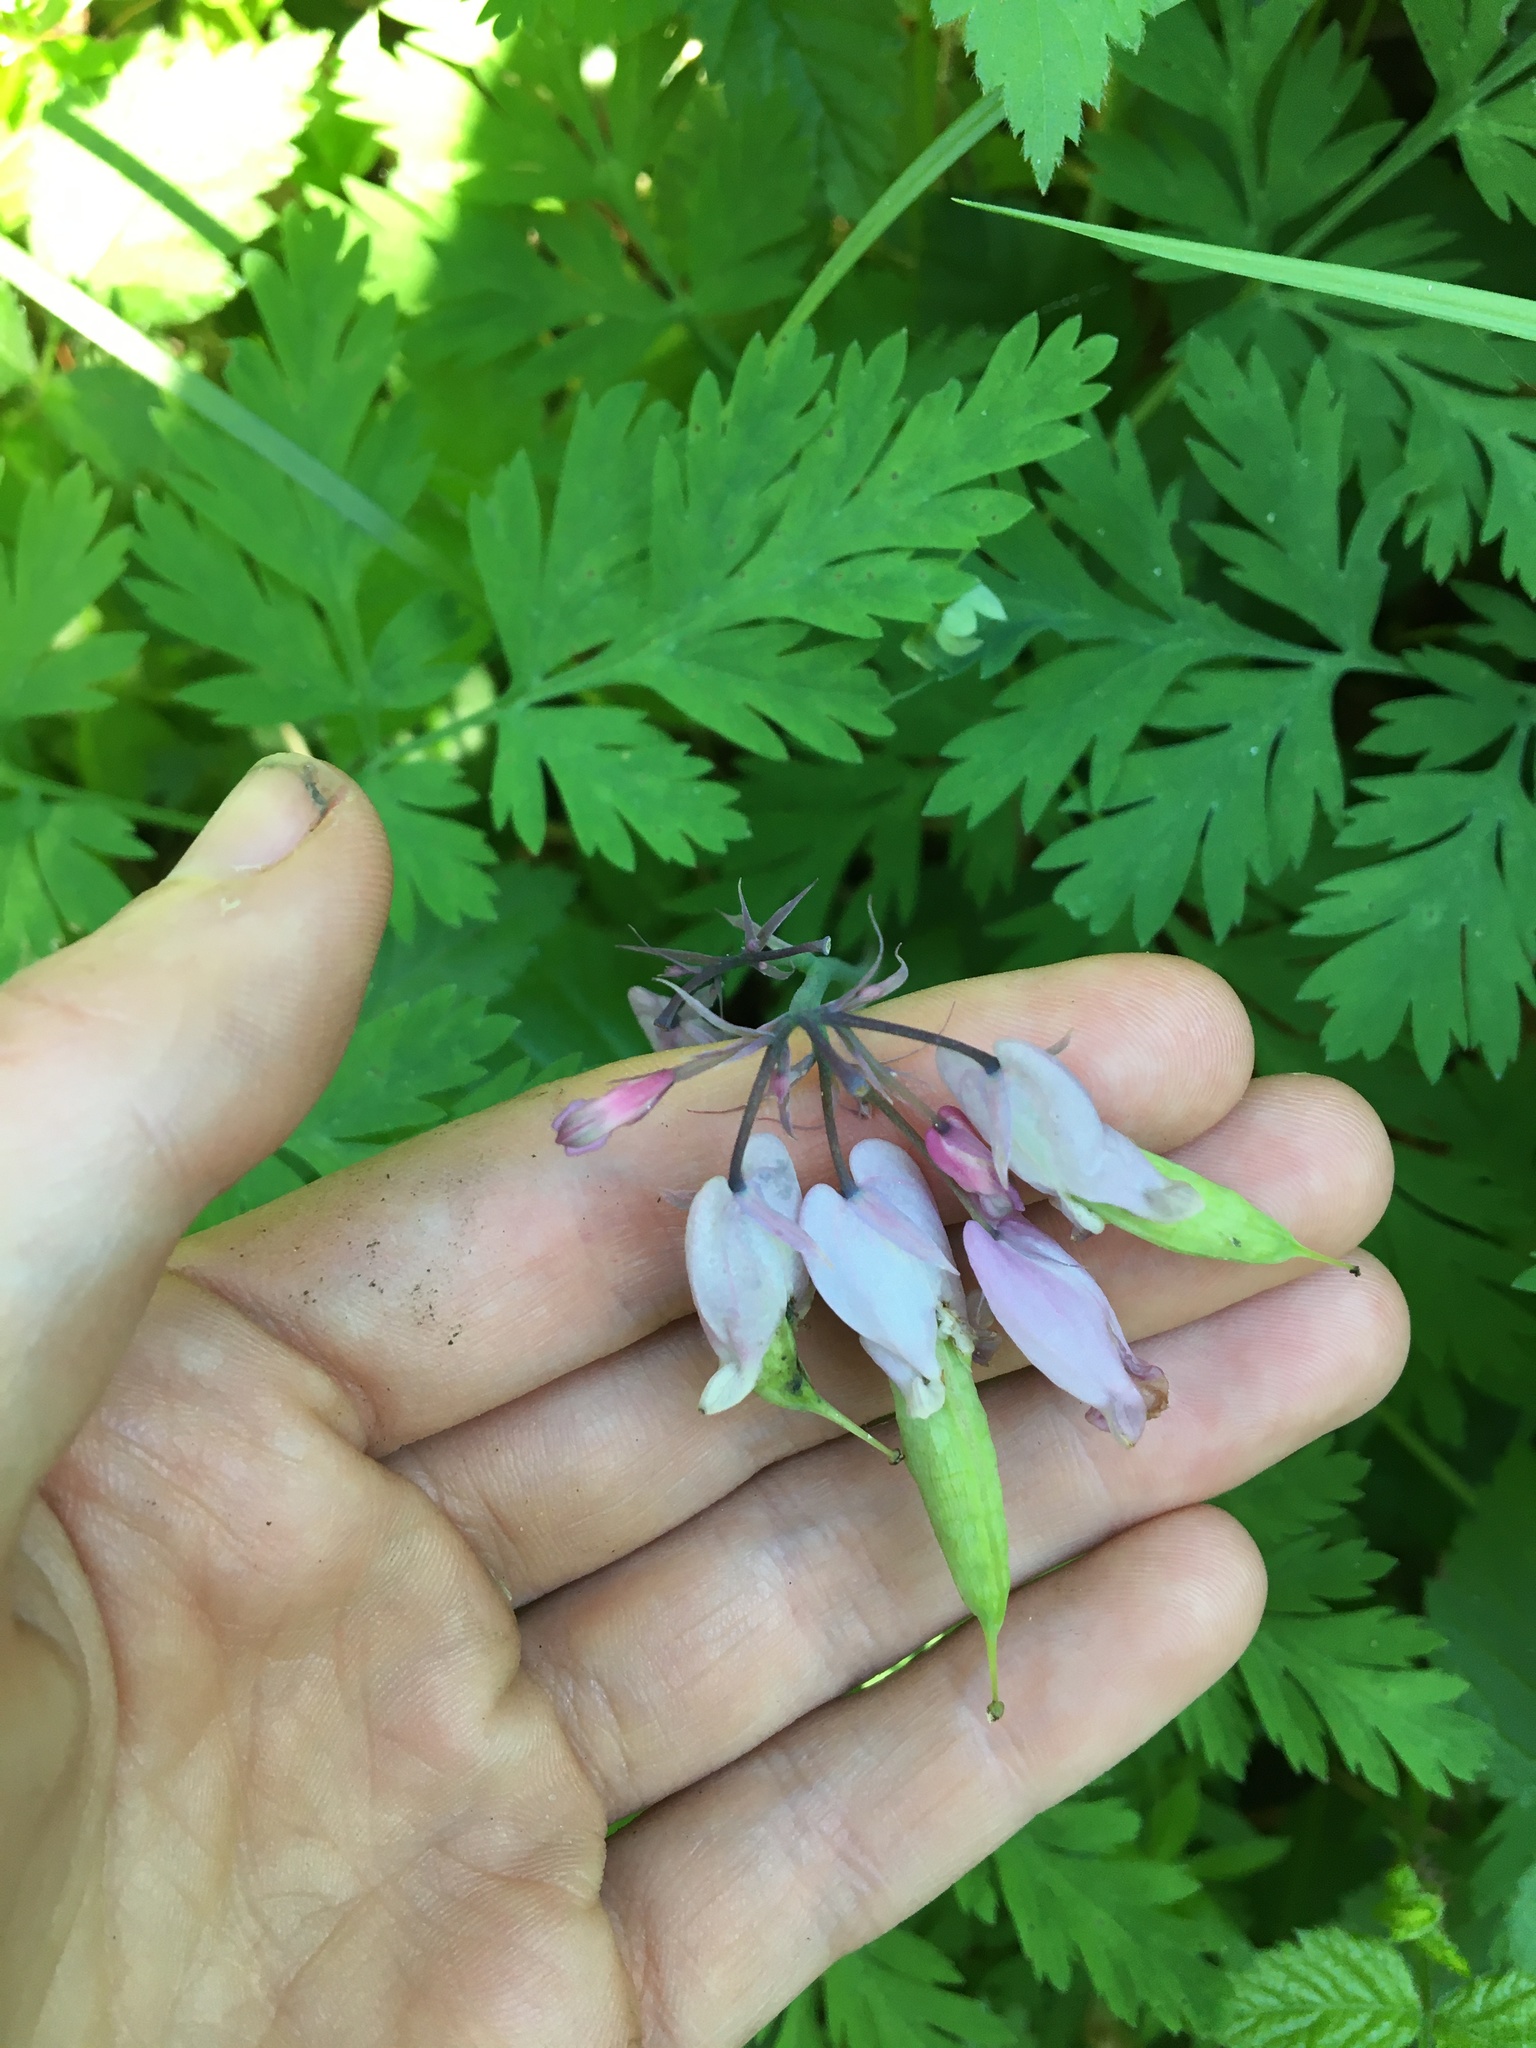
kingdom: Plantae
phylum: Tracheophyta
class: Magnoliopsida
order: Ranunculales
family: Papaveraceae
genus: Dicentra
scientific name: Dicentra formosa
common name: Bleeding-heart
